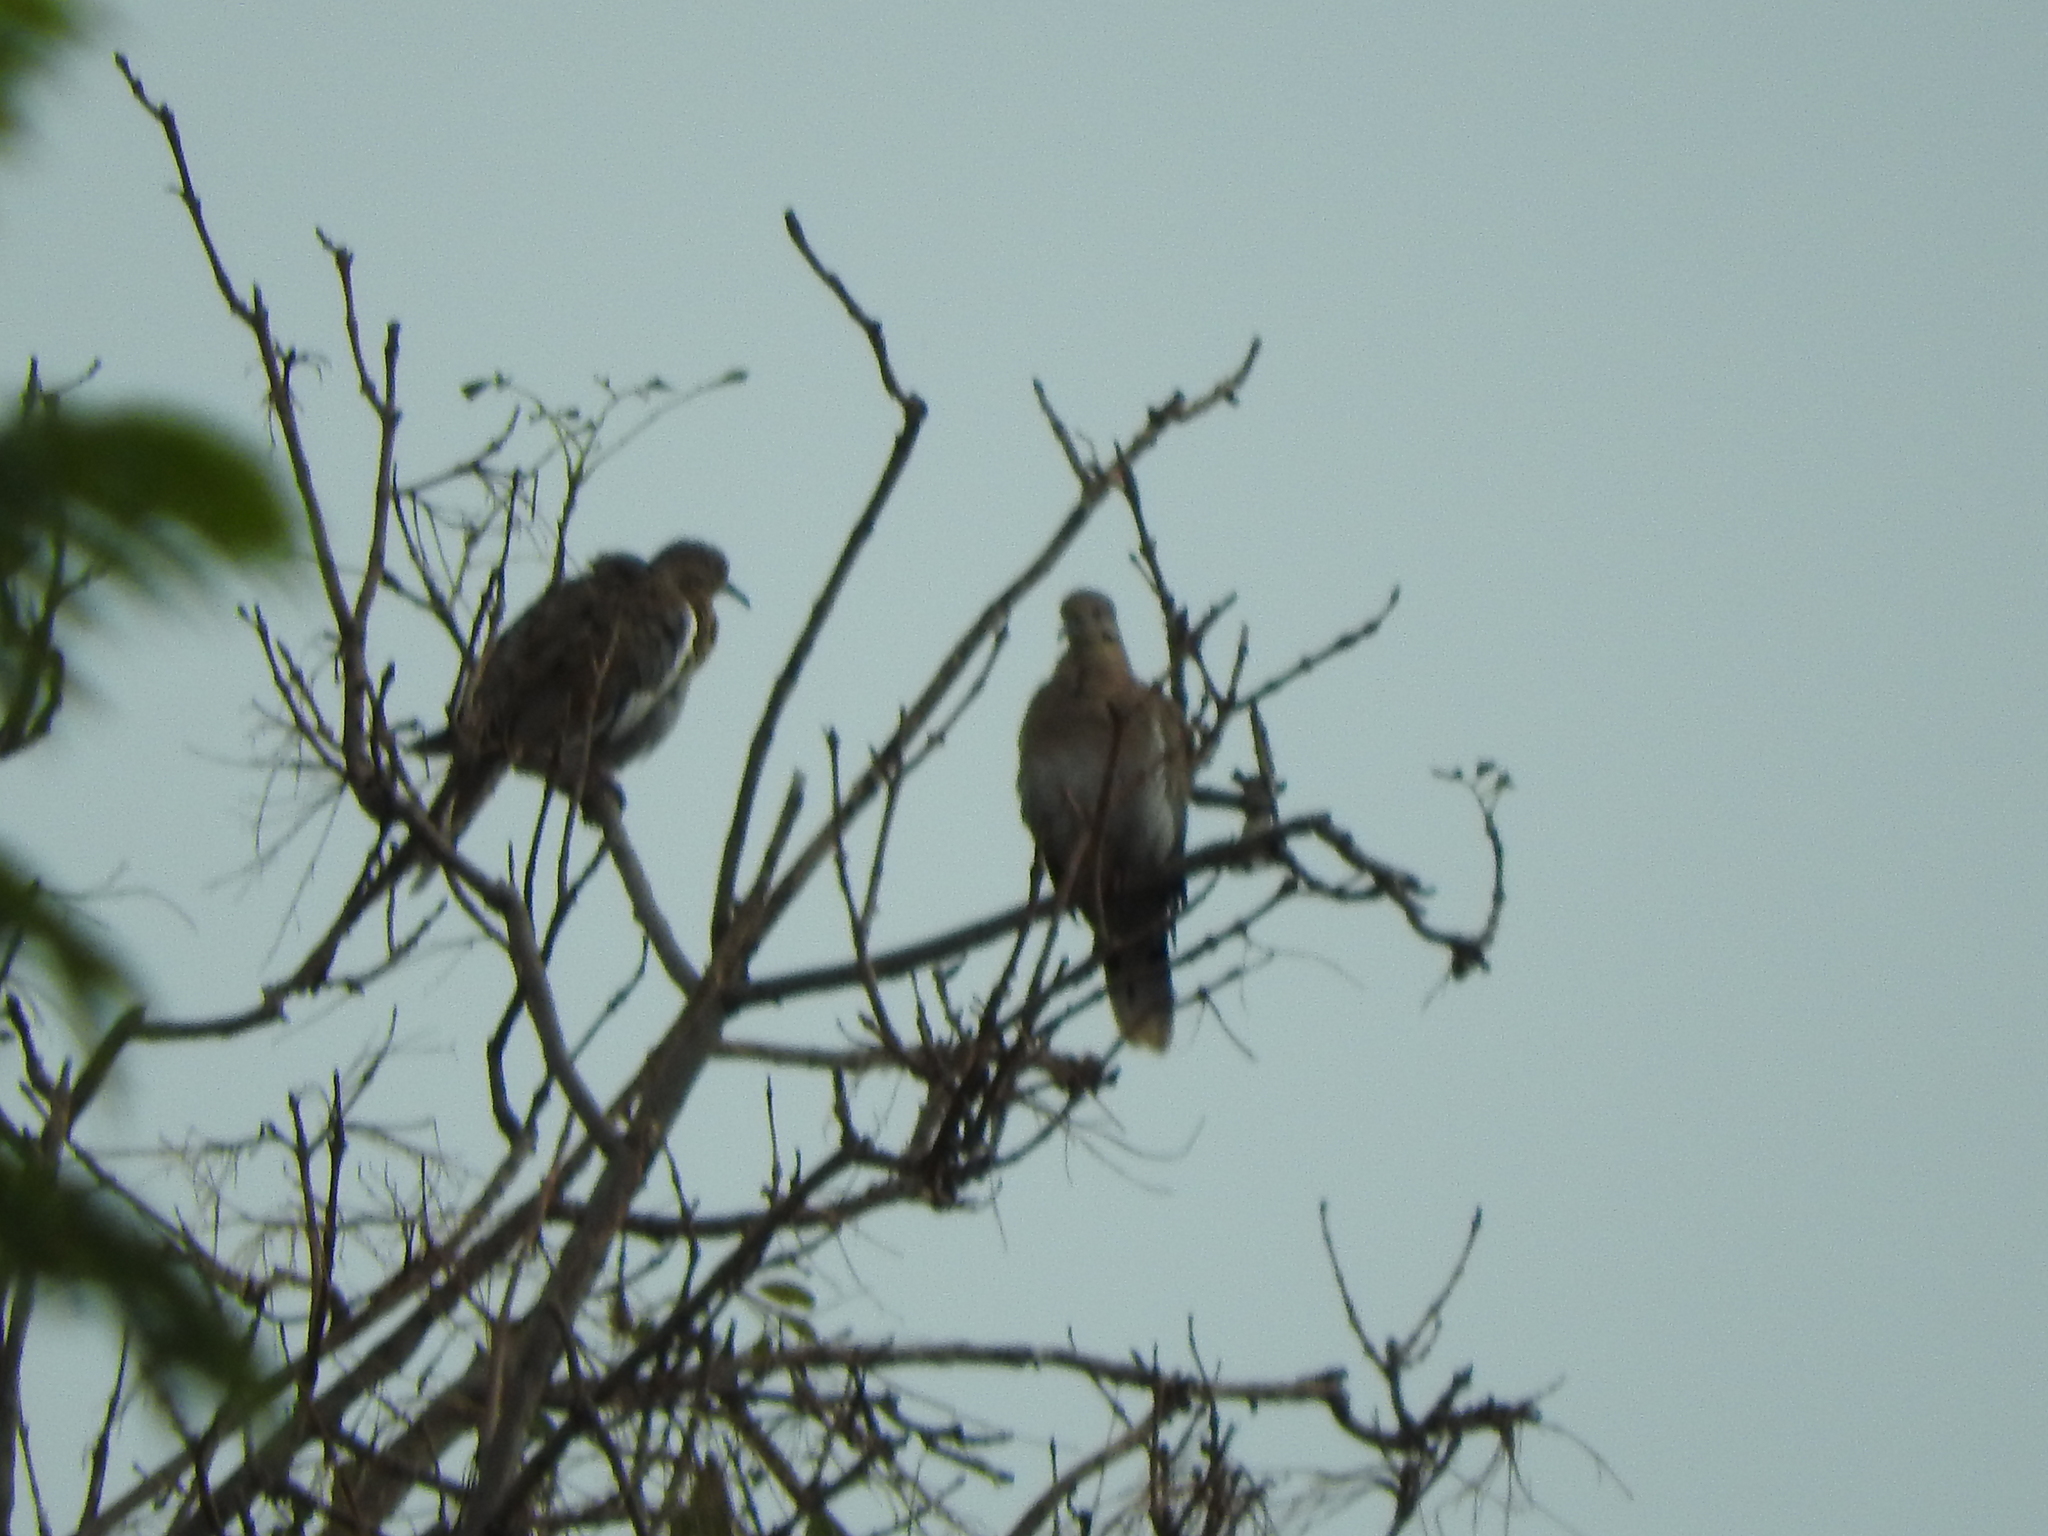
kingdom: Animalia
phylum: Chordata
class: Aves
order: Columbiformes
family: Columbidae
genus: Zenaida
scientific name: Zenaida asiatica
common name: White-winged dove
